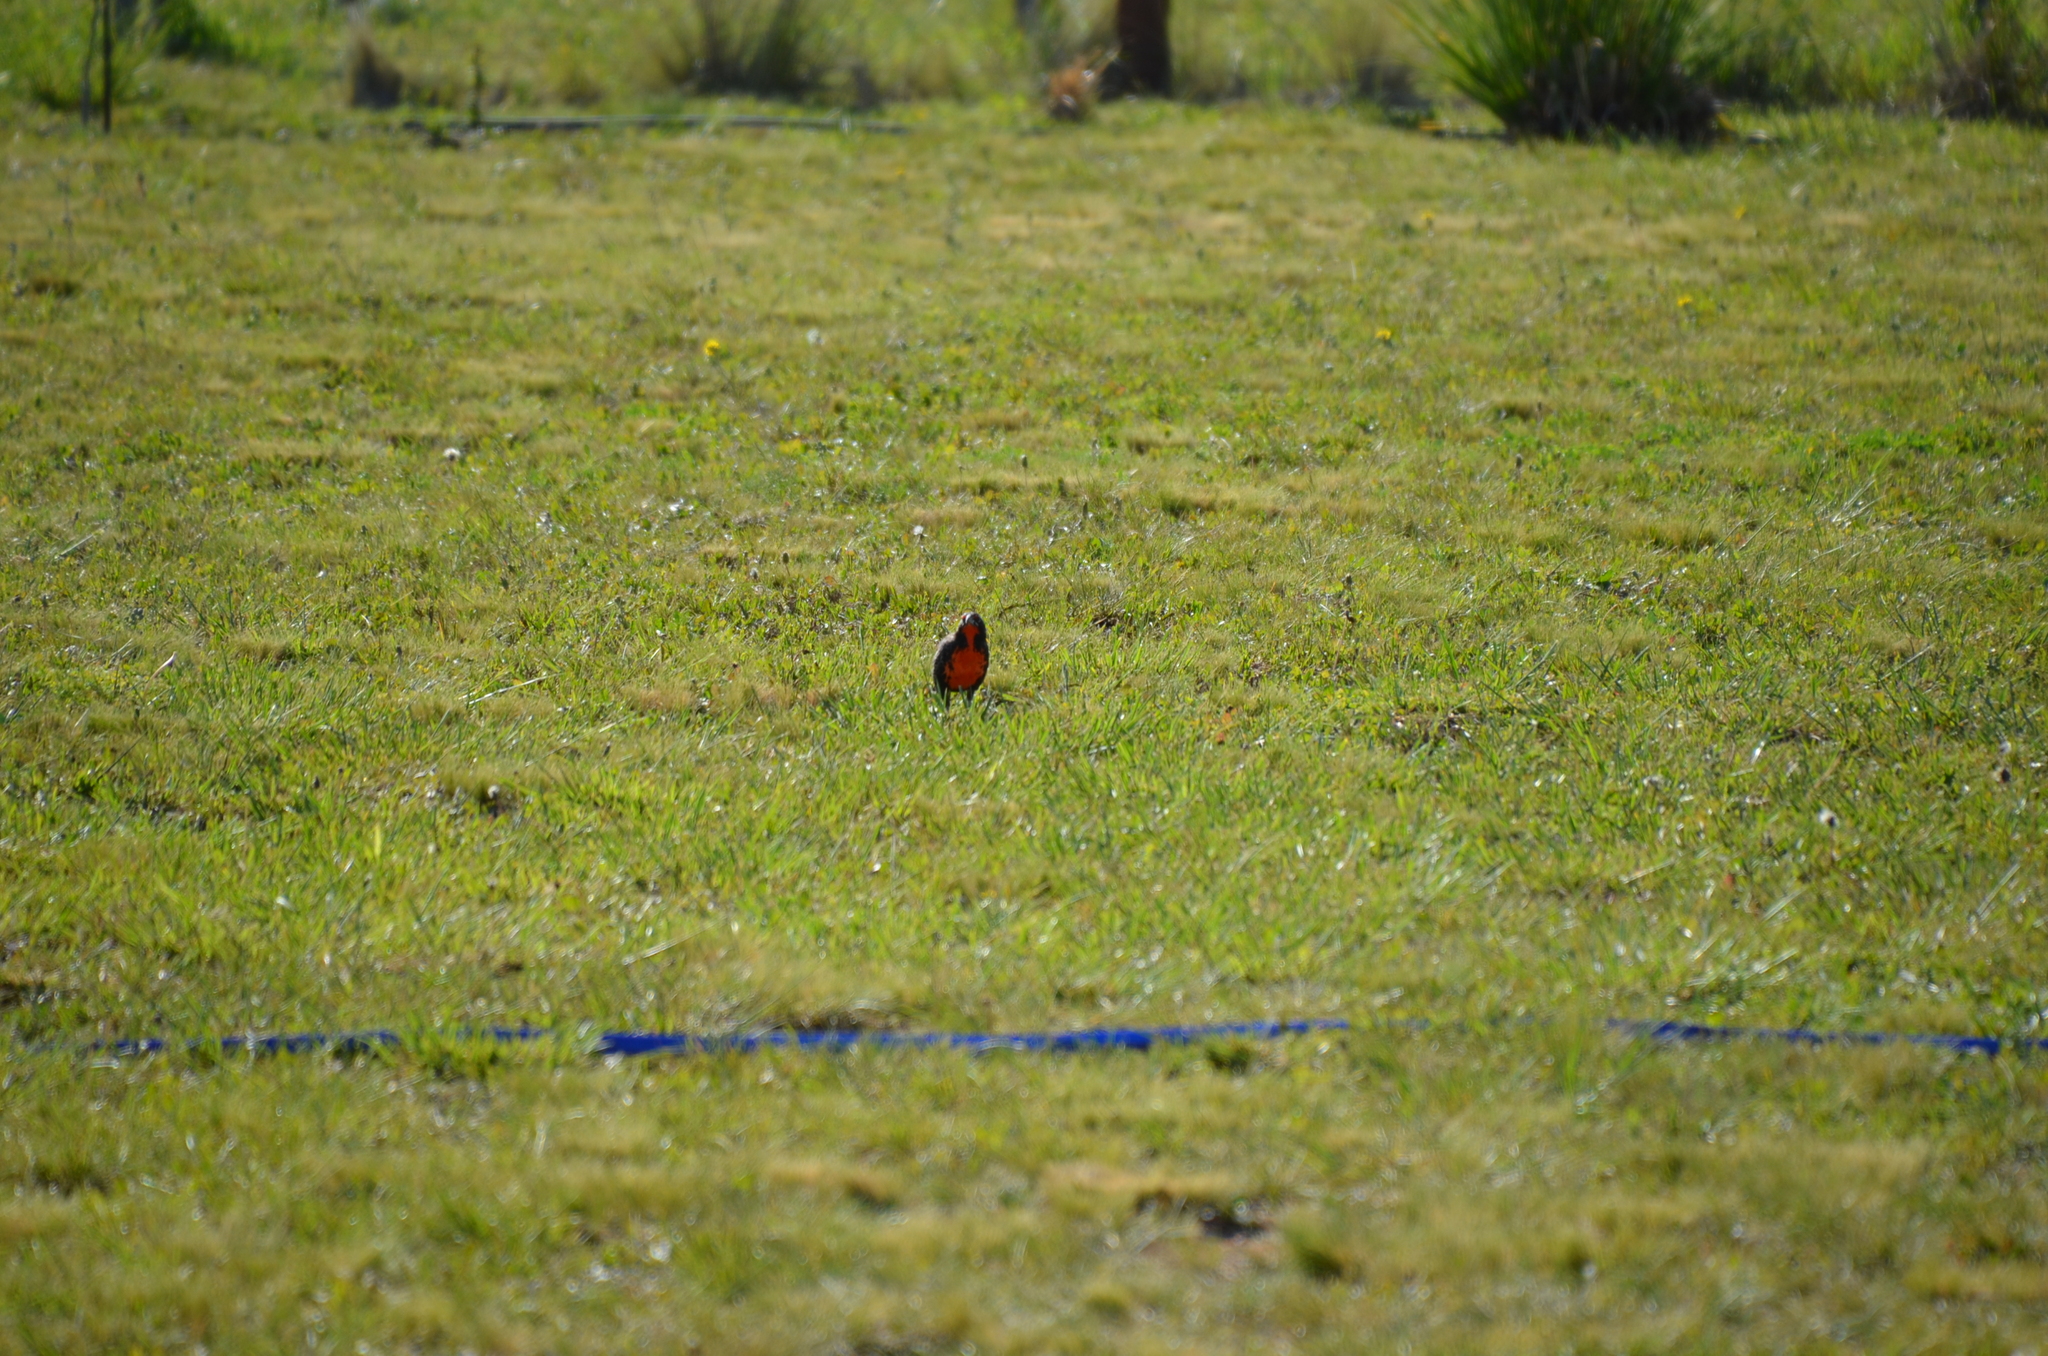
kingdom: Animalia
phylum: Chordata
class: Aves
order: Passeriformes
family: Icteridae
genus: Sturnella
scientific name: Sturnella loyca
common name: Long-tailed meadowlark
